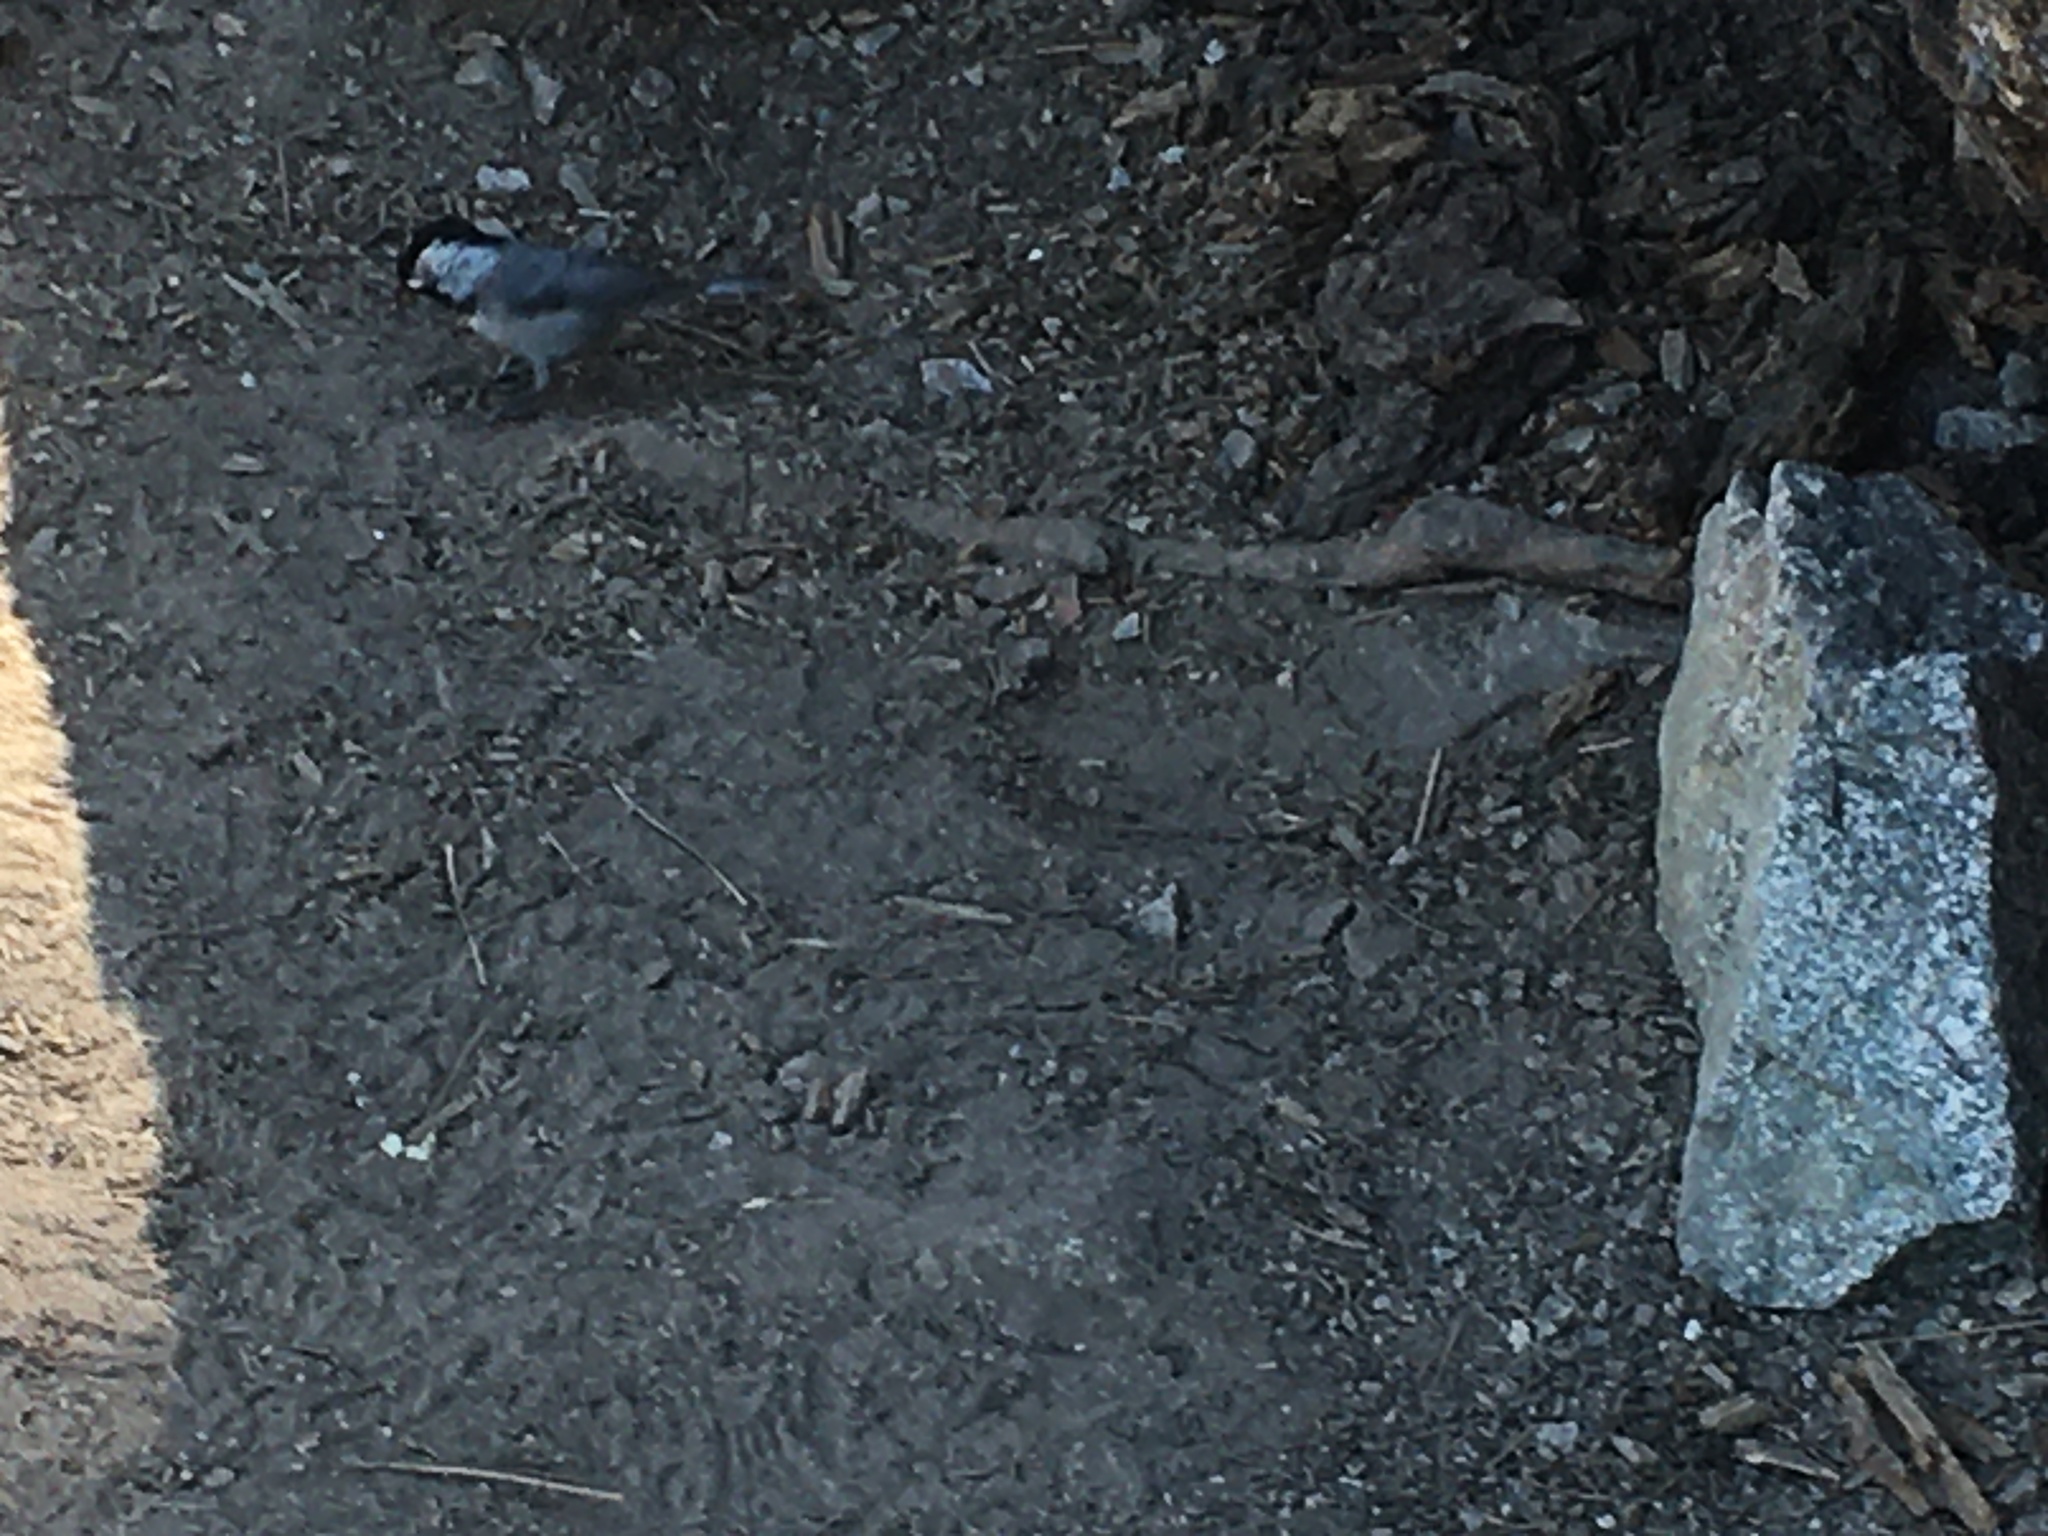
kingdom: Animalia
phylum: Chordata
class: Aves
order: Passeriformes
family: Paridae
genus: Poecile
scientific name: Poecile gambeli
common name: Mountain chickadee
